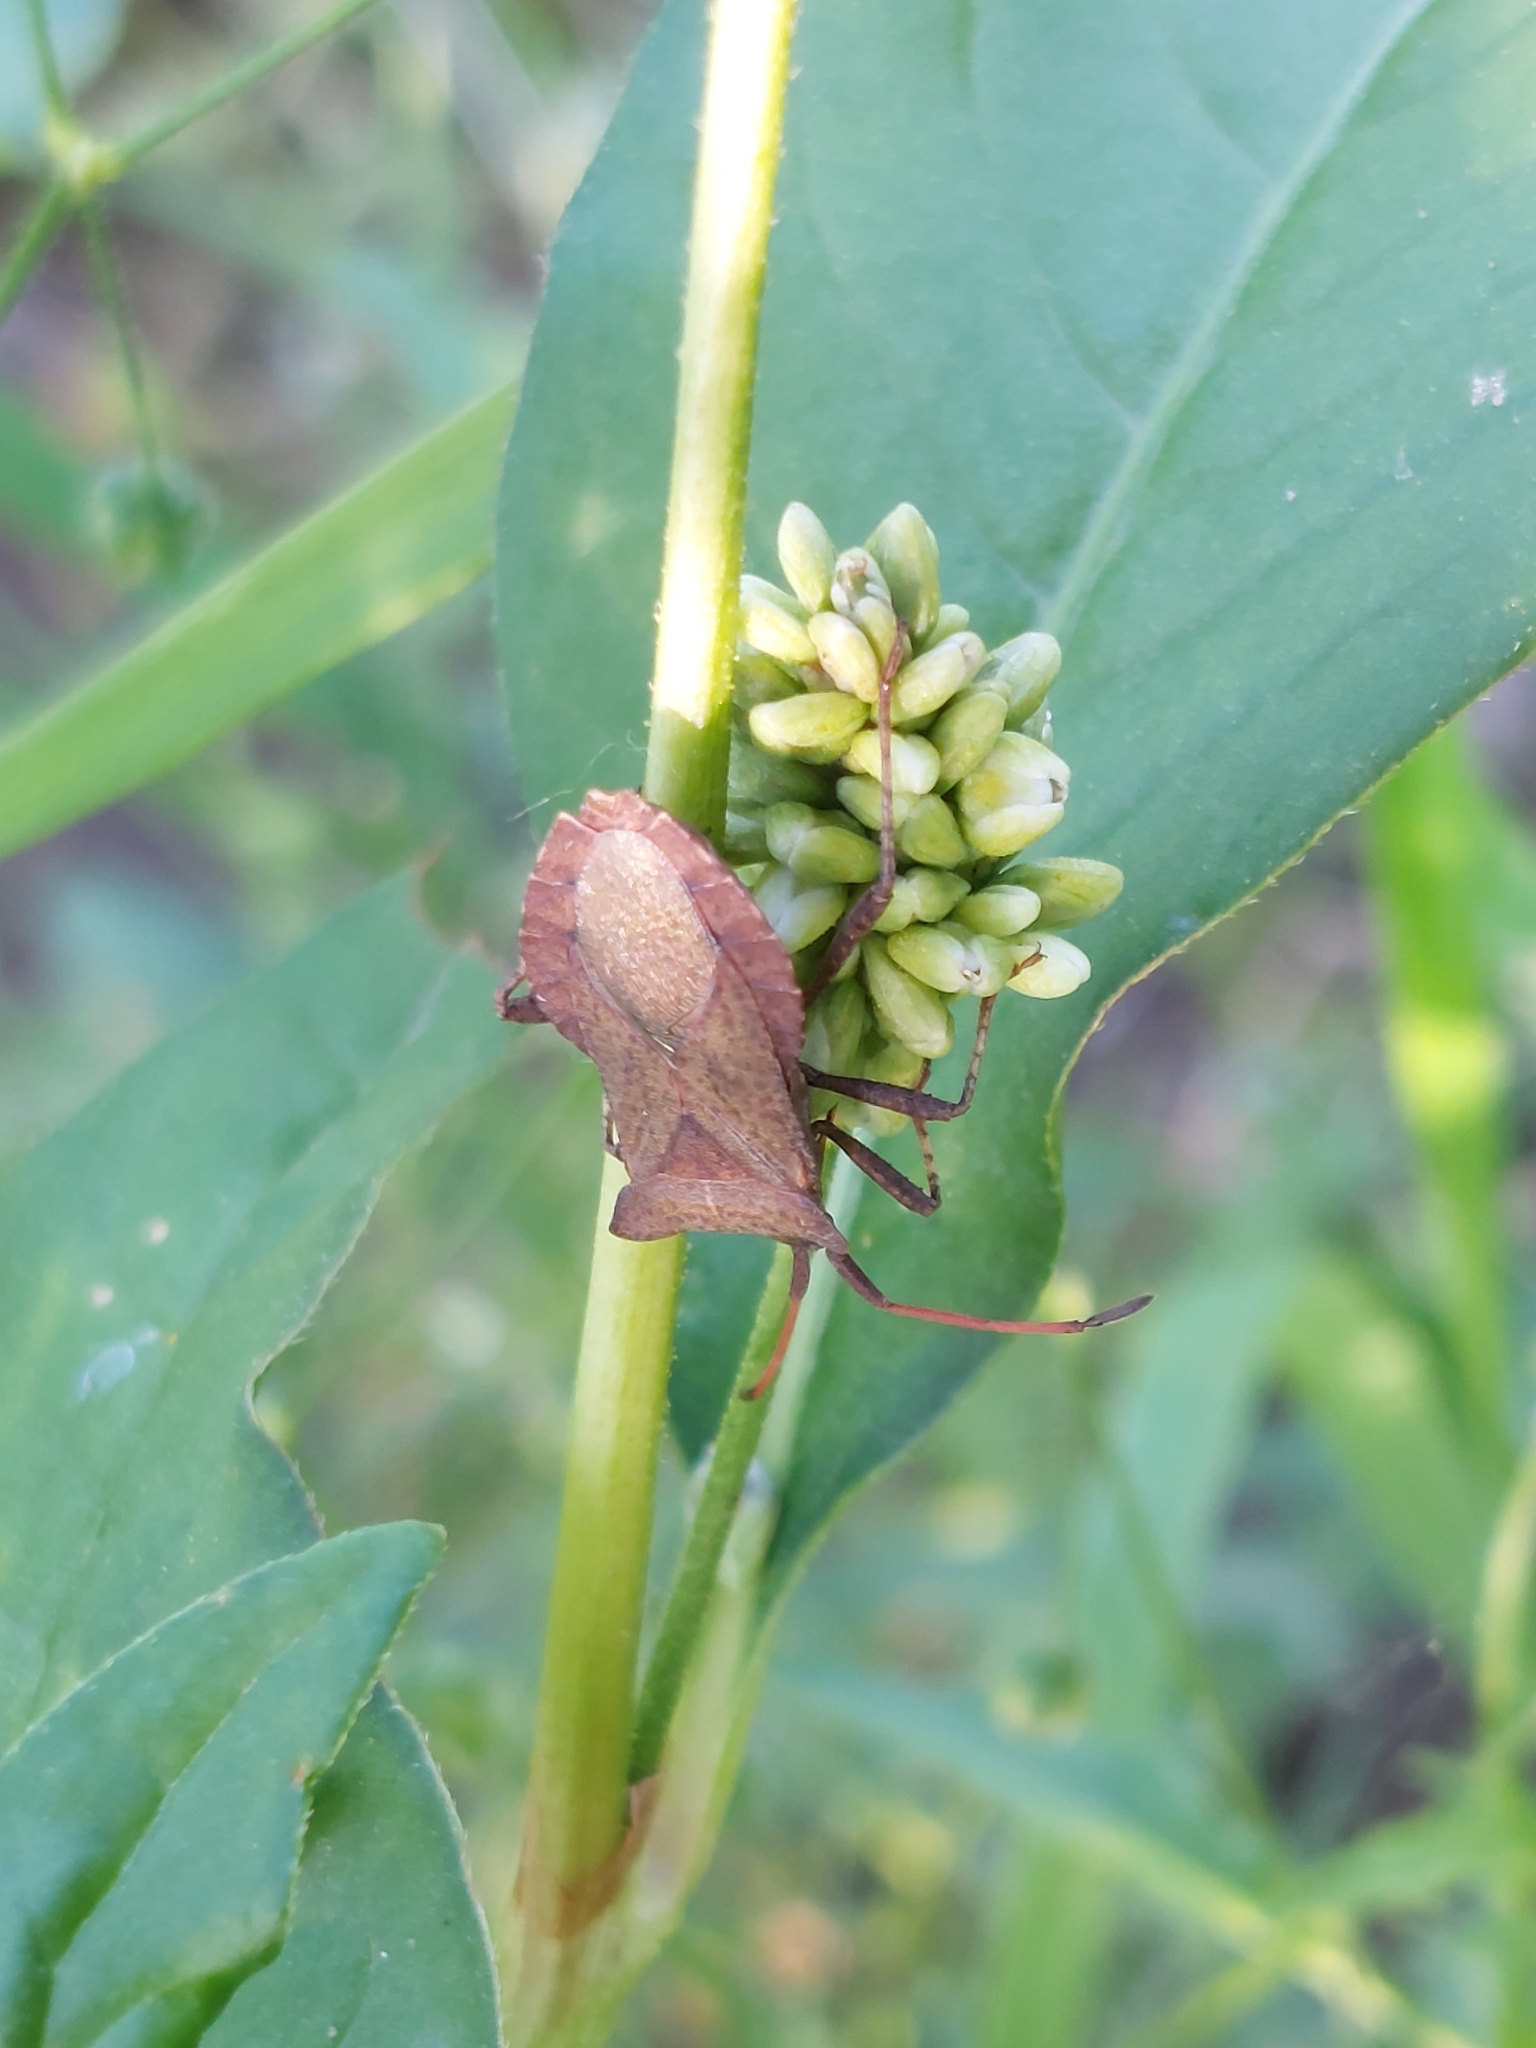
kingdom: Animalia
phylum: Arthropoda
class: Insecta
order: Hemiptera
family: Coreidae
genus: Coreus
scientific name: Coreus marginatus
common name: Dock bug
